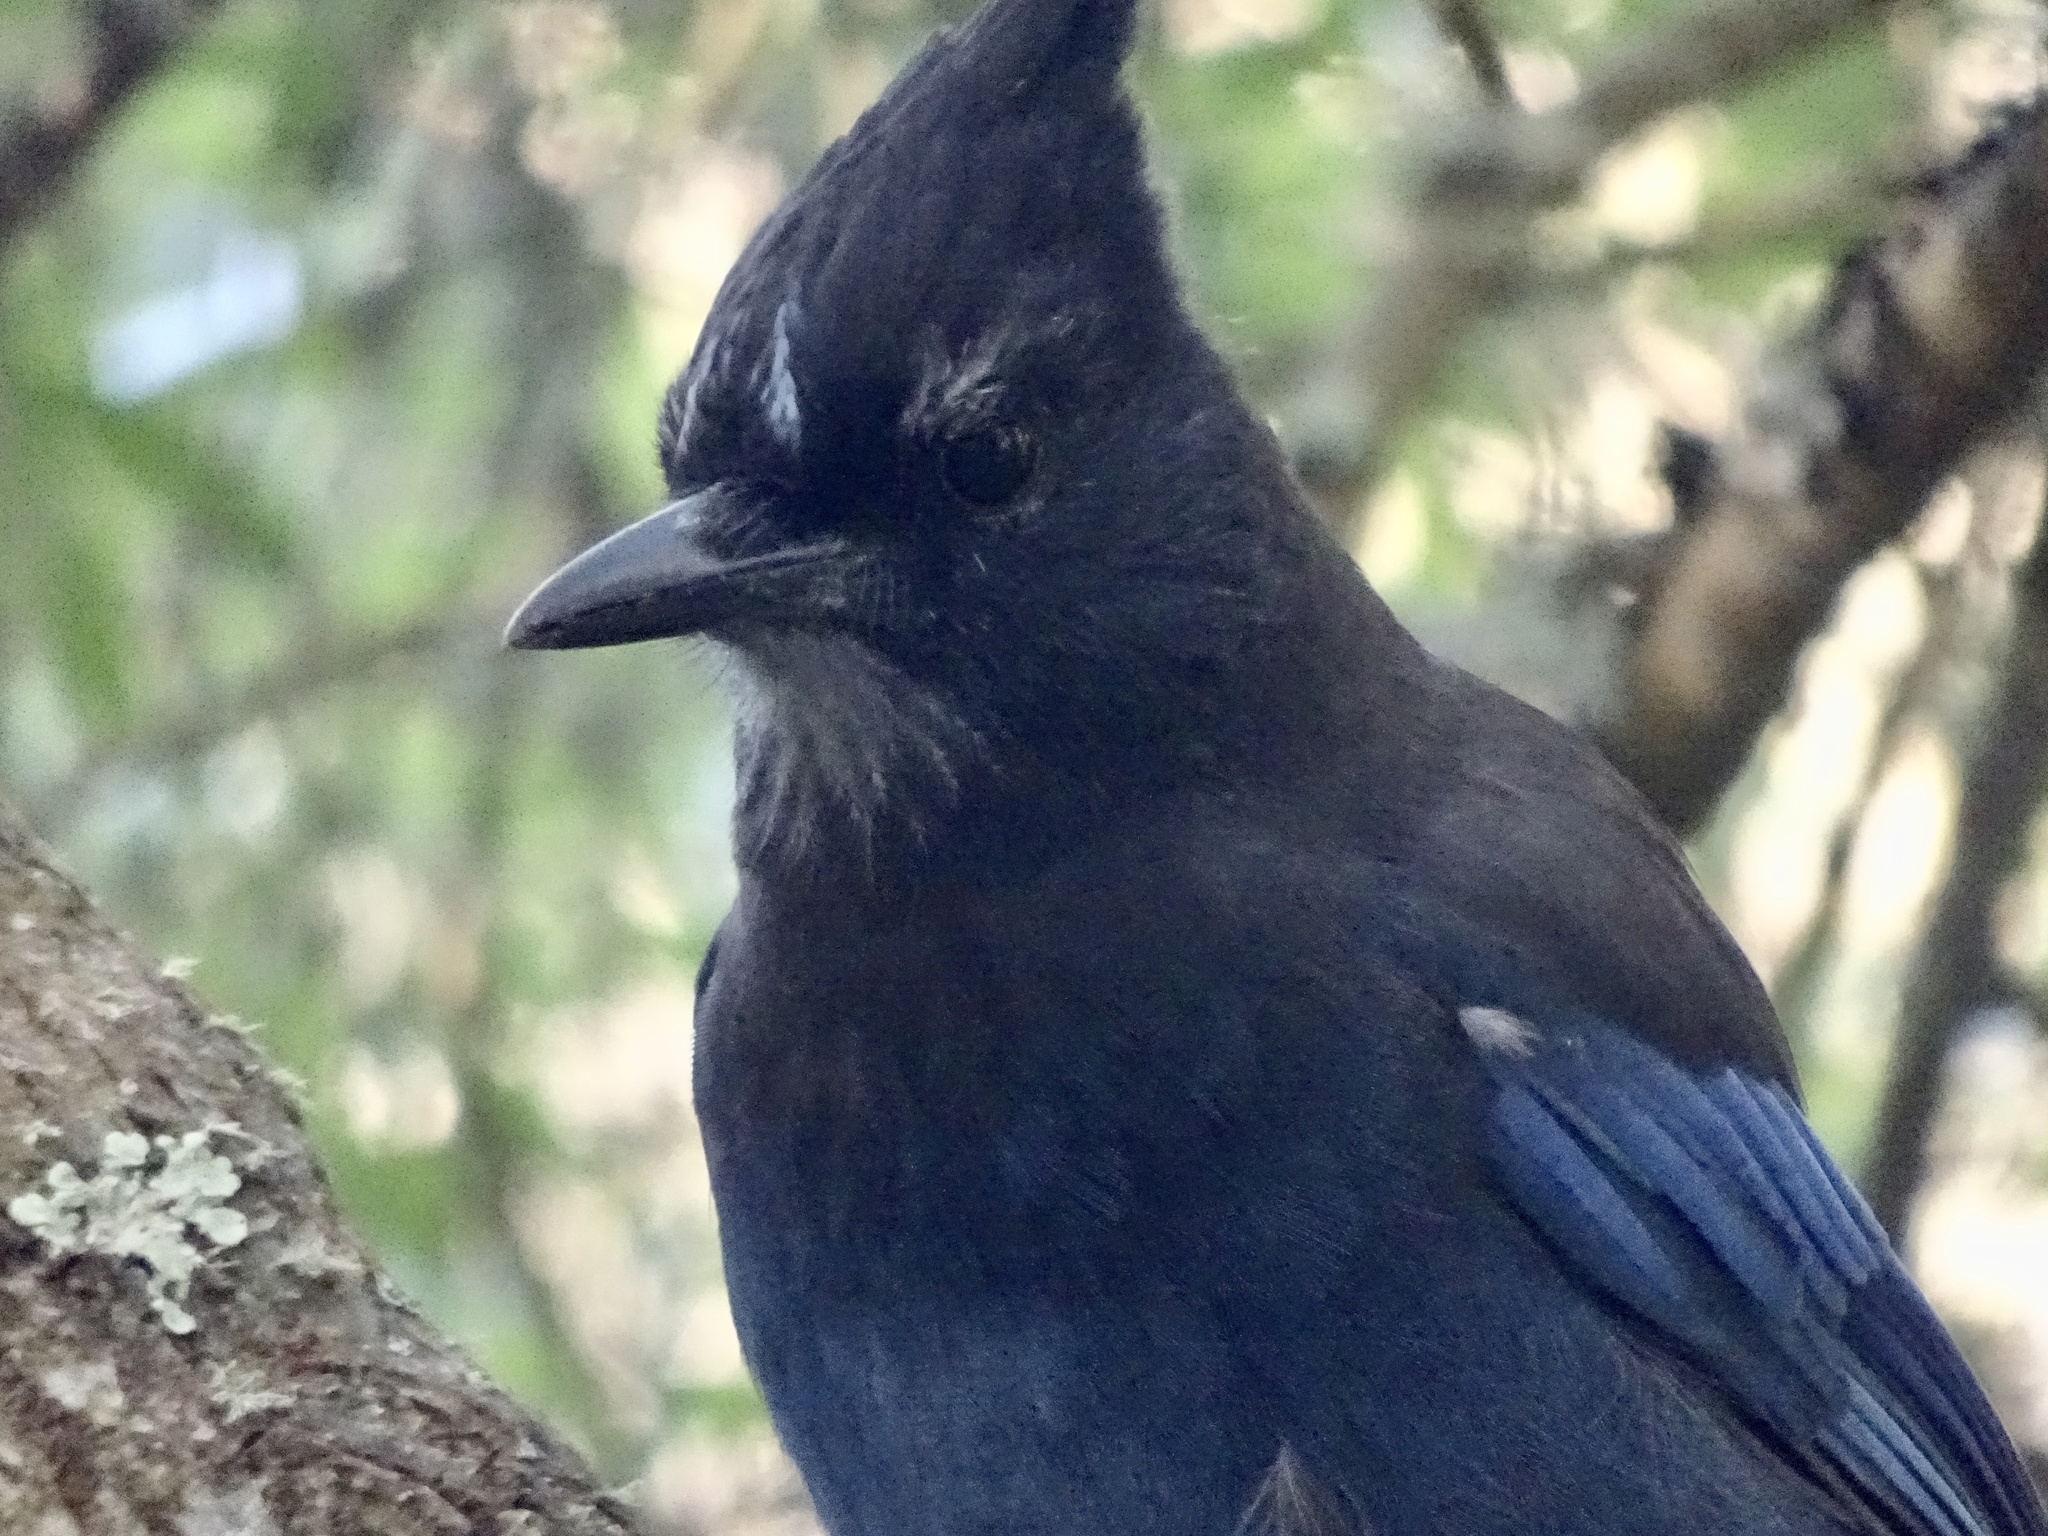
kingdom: Animalia
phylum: Chordata
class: Aves
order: Passeriformes
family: Corvidae
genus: Cyanocitta
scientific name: Cyanocitta stelleri
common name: Steller's jay
